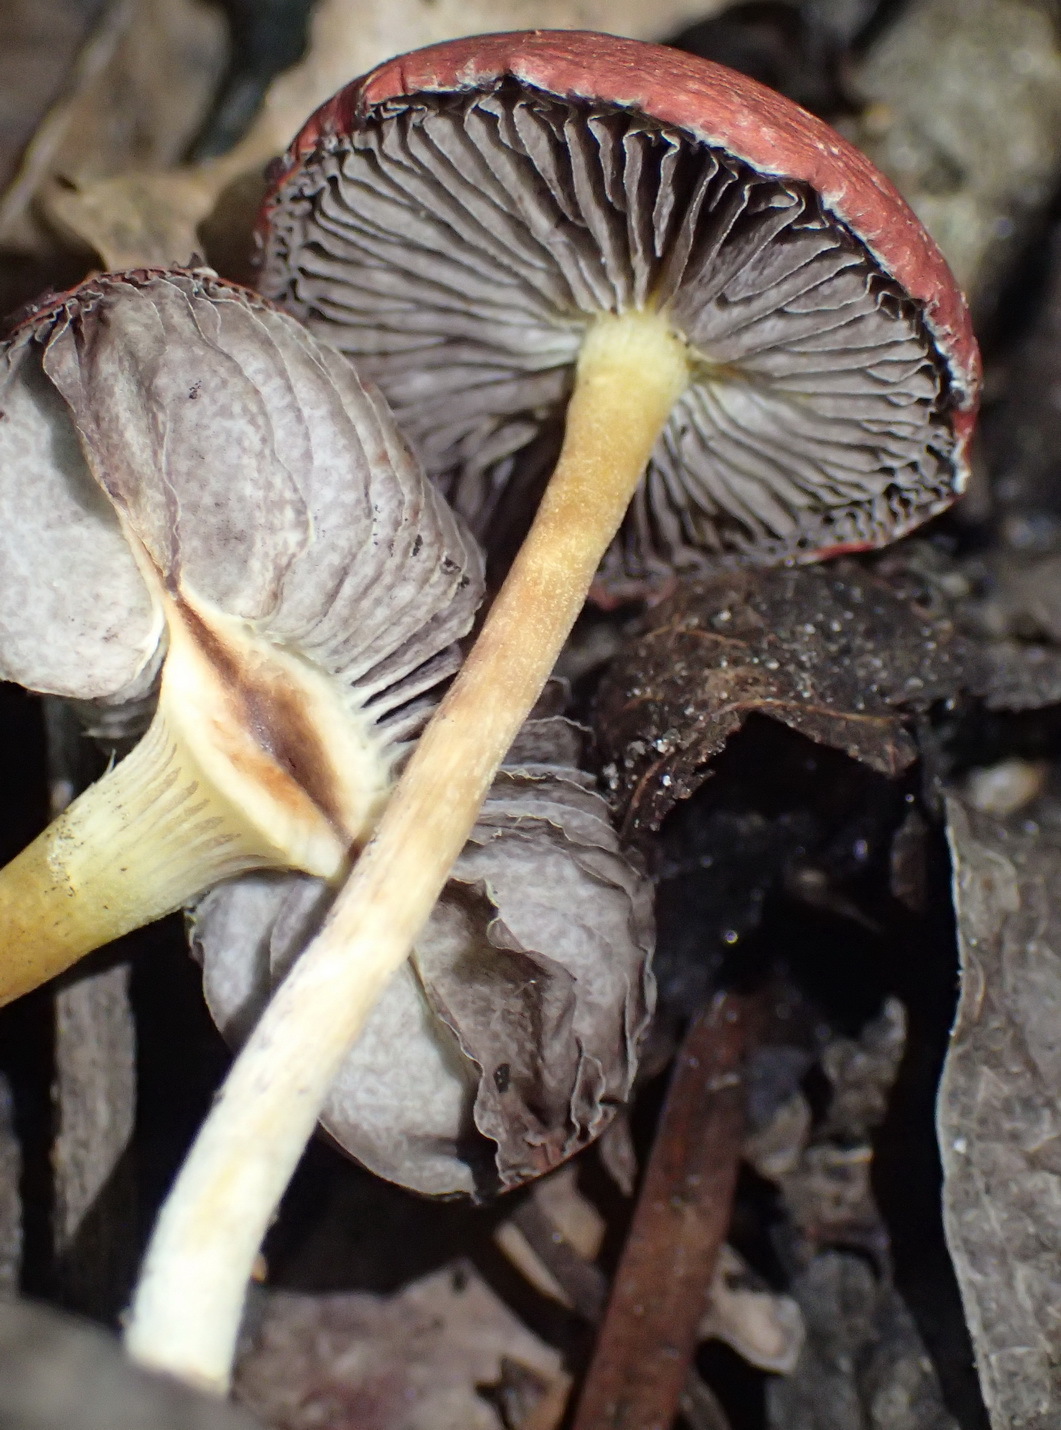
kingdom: Fungi
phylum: Basidiomycota
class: Agaricomycetes
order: Agaricales
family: Strophariaceae
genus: Leratiomyces
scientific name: Leratiomyces ceres
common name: Redlead roundhead
